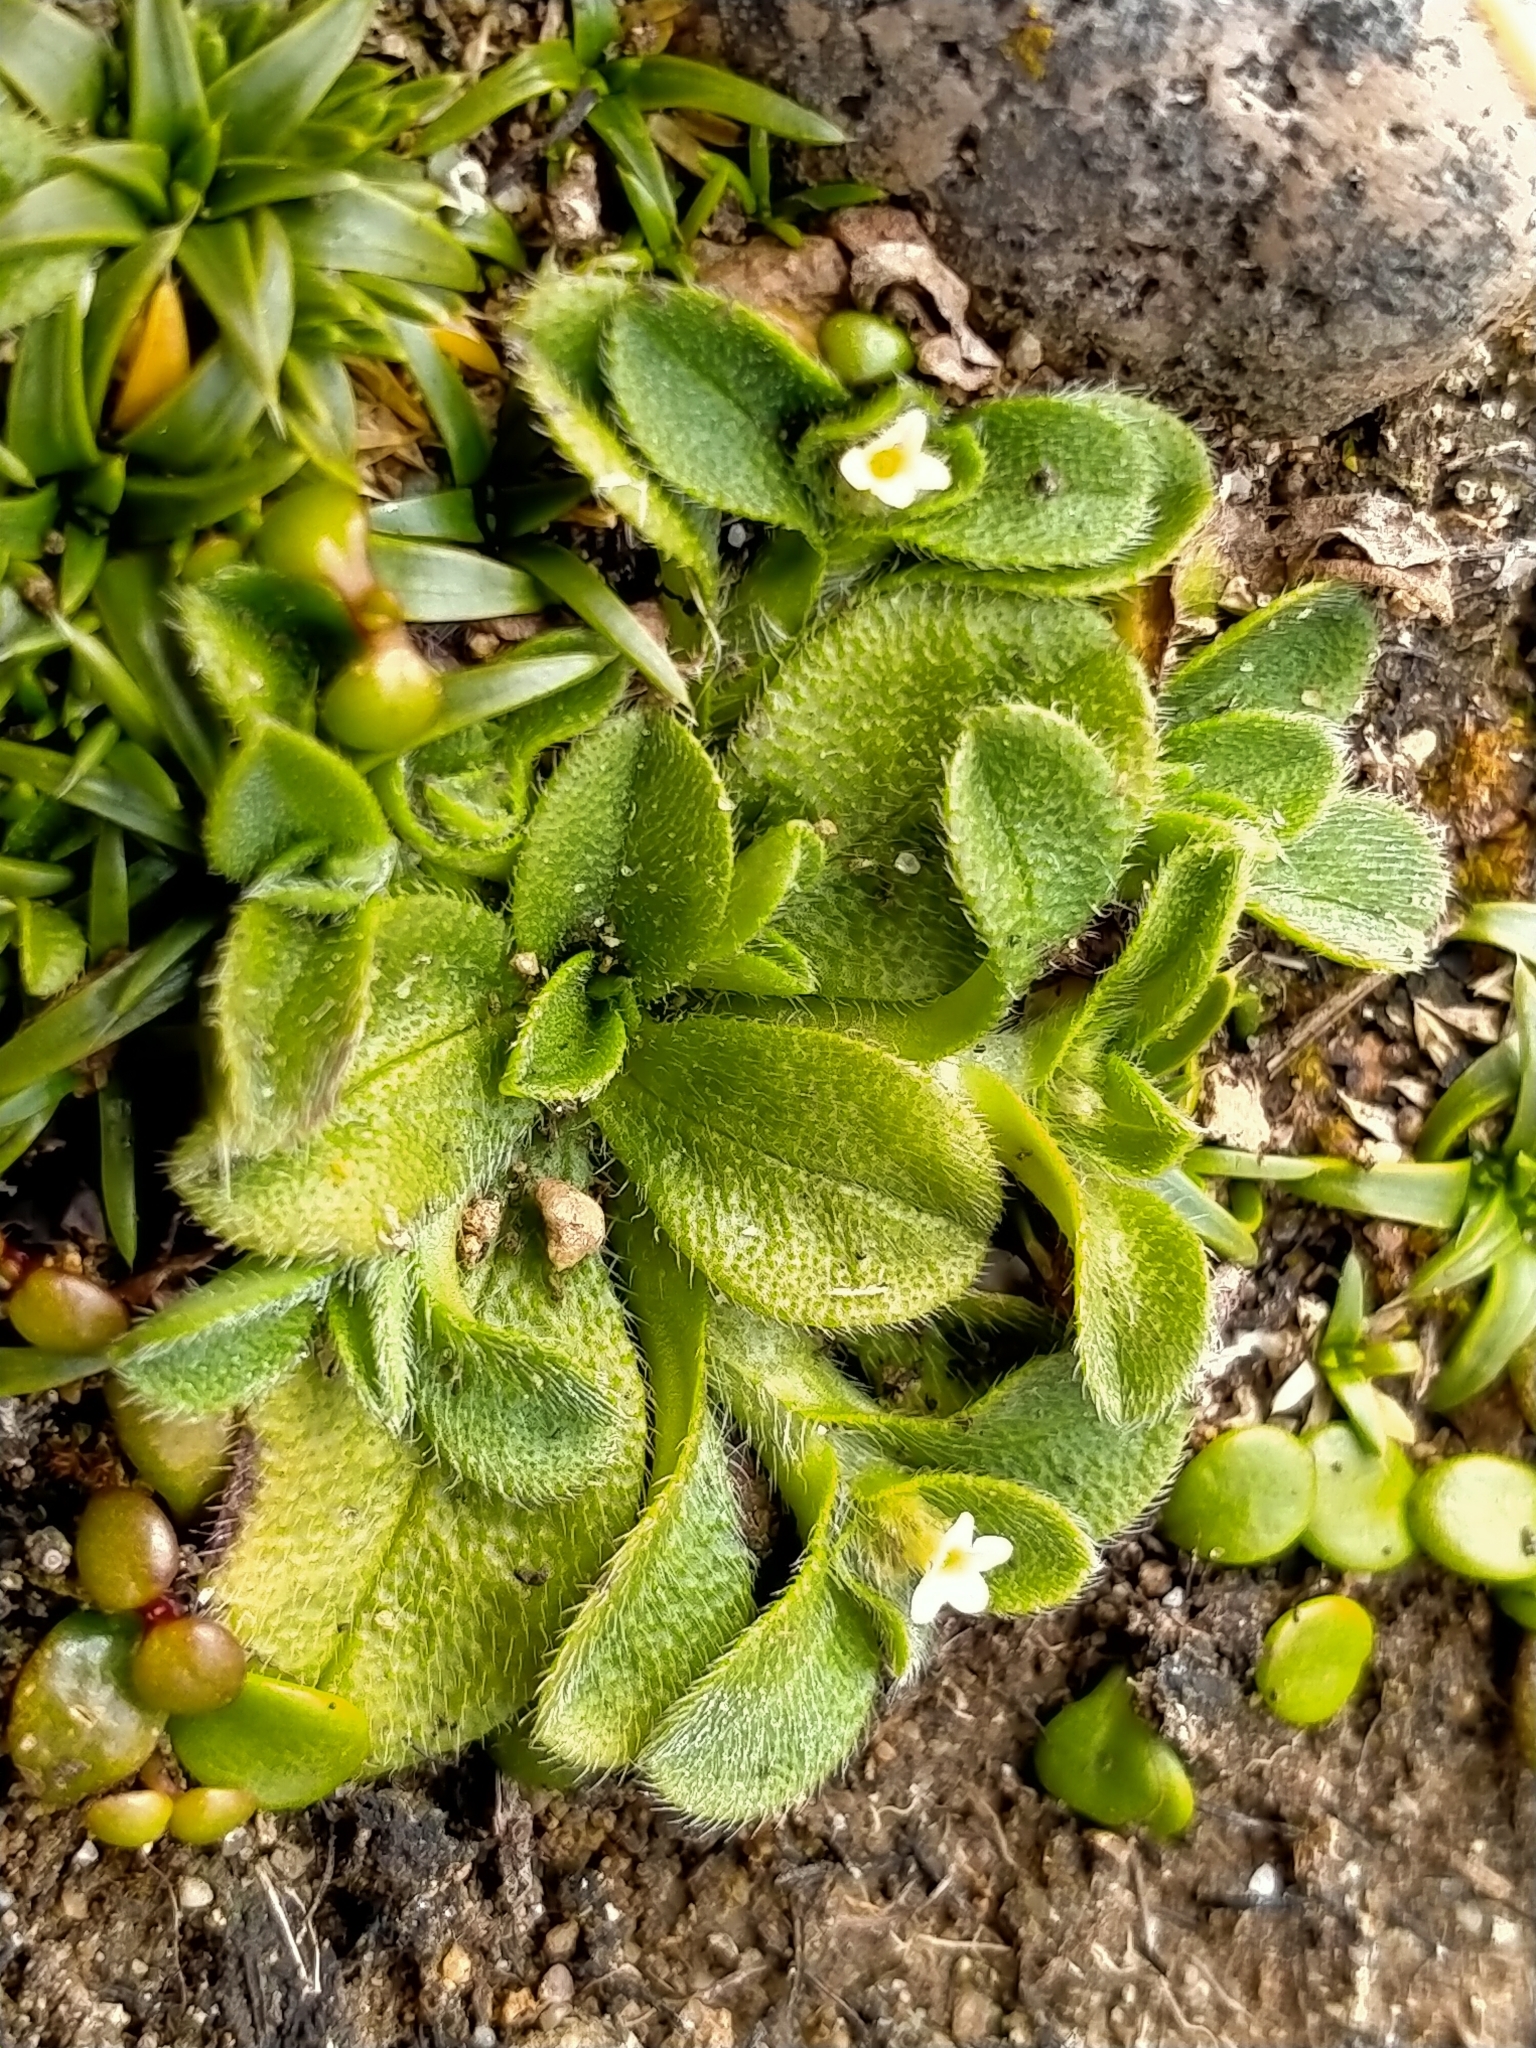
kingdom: Plantae
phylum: Tracheophyta
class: Magnoliopsida
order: Boraginales
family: Boraginaceae
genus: Myosotis
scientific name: Myosotis antarctica
